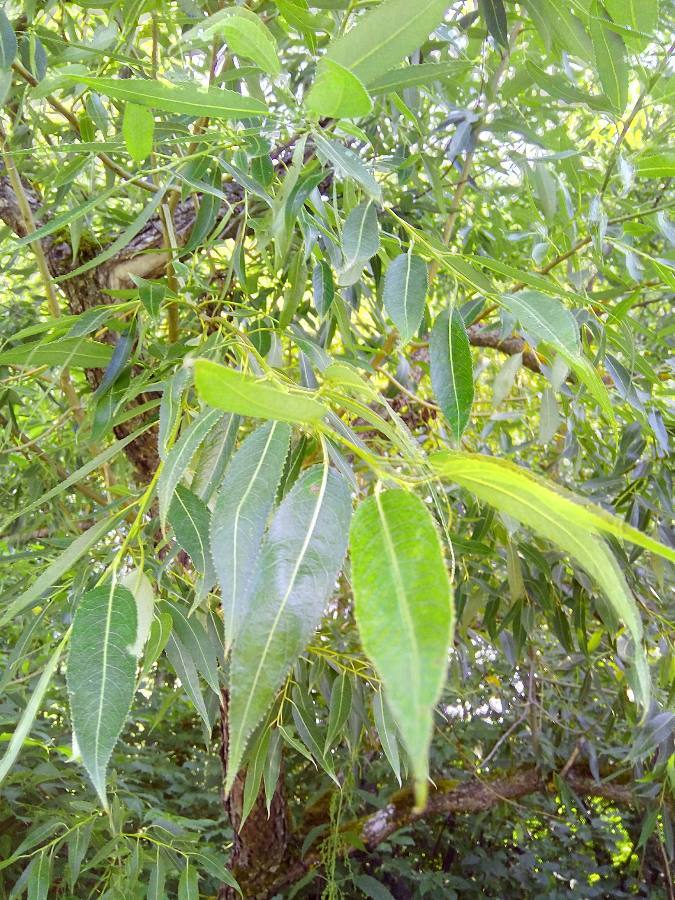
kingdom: Plantae
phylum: Tracheophyta
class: Magnoliopsida
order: Malpighiales
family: Salicaceae
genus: Salix
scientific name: Salix alba
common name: White willow
